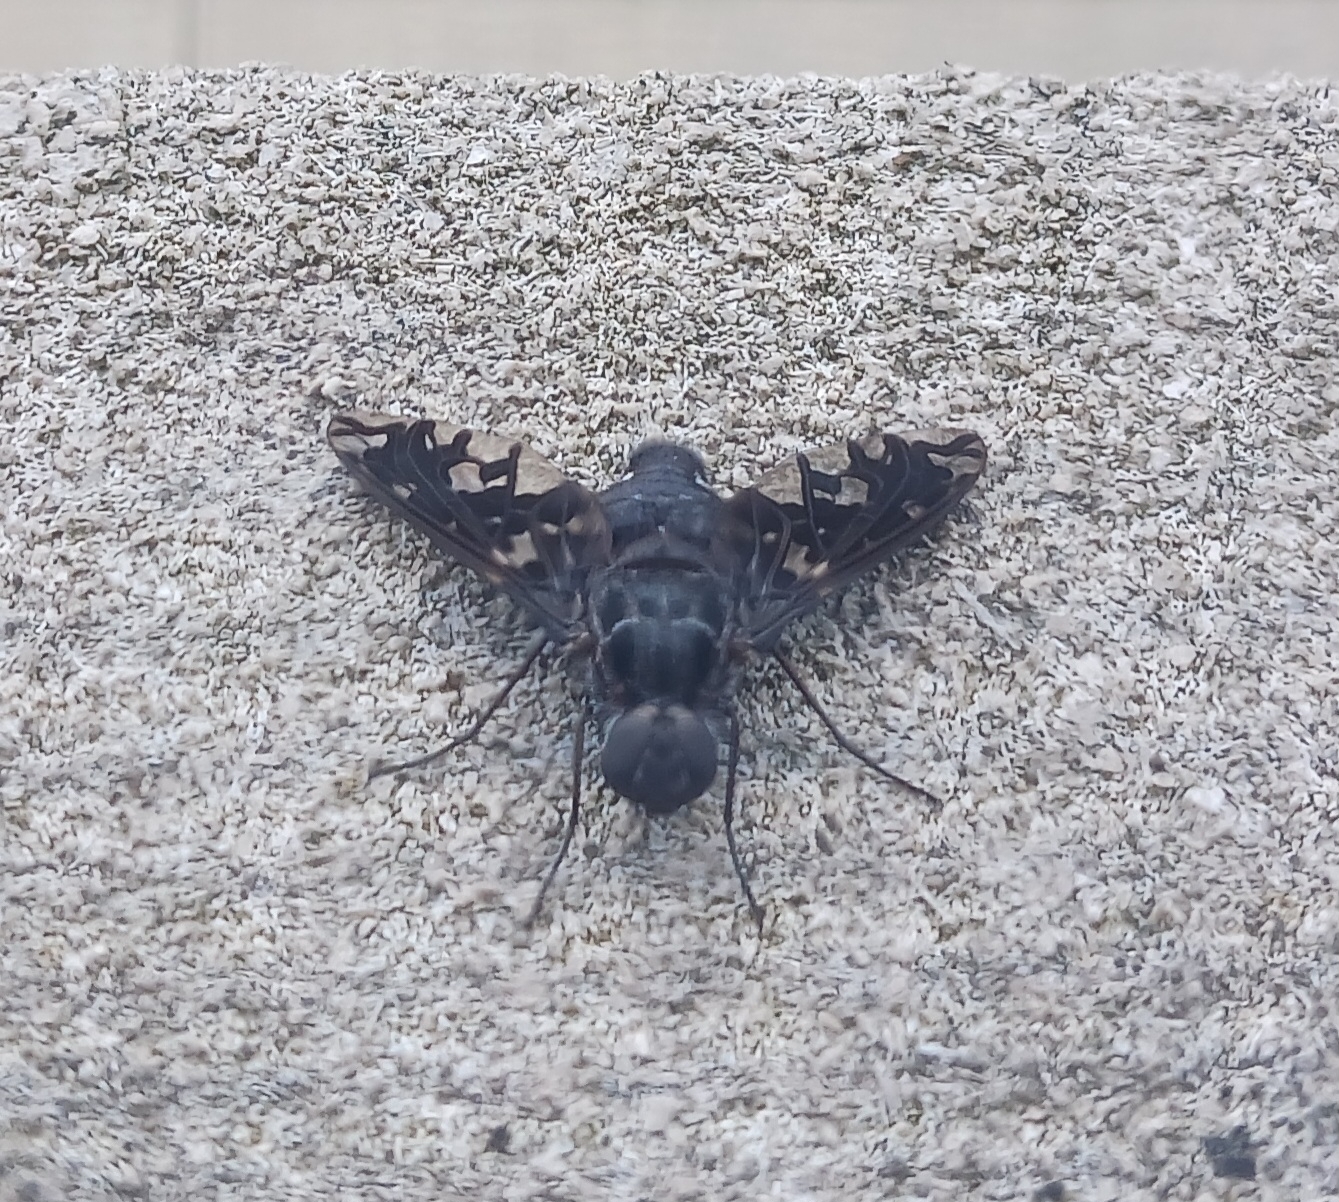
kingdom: Animalia
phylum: Arthropoda
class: Insecta
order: Diptera
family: Bombyliidae
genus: Xenox
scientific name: Xenox tigrinus
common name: Tiger bee fly
